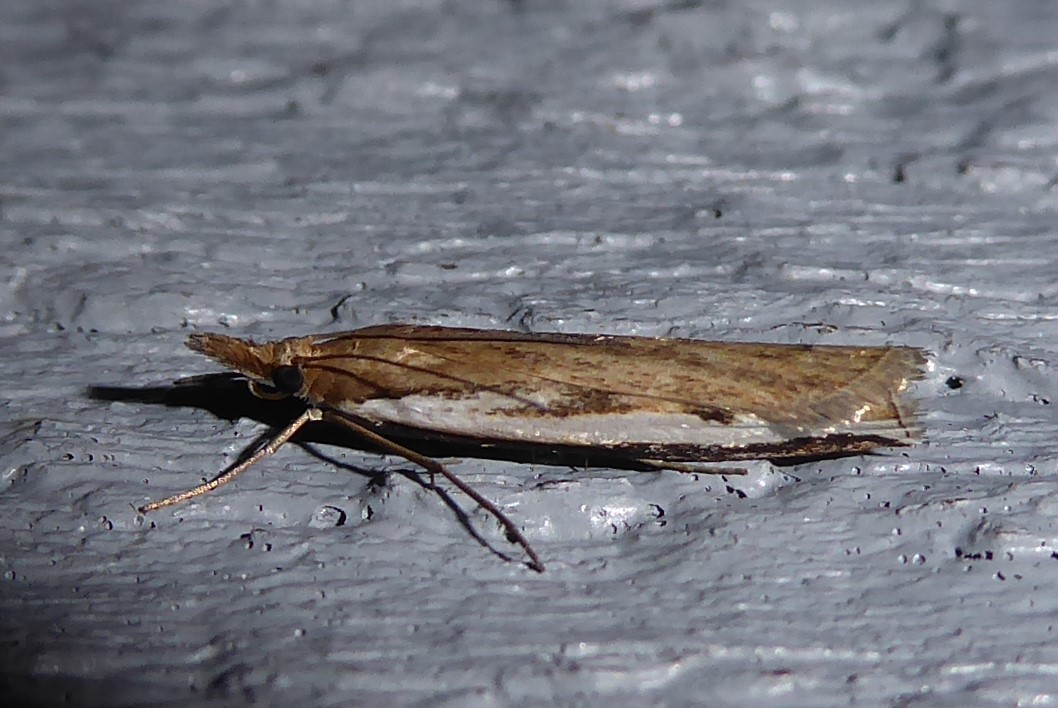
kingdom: Animalia
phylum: Arthropoda
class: Insecta
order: Lepidoptera
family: Crambidae
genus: Orocrambus
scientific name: Orocrambus flexuosellus
